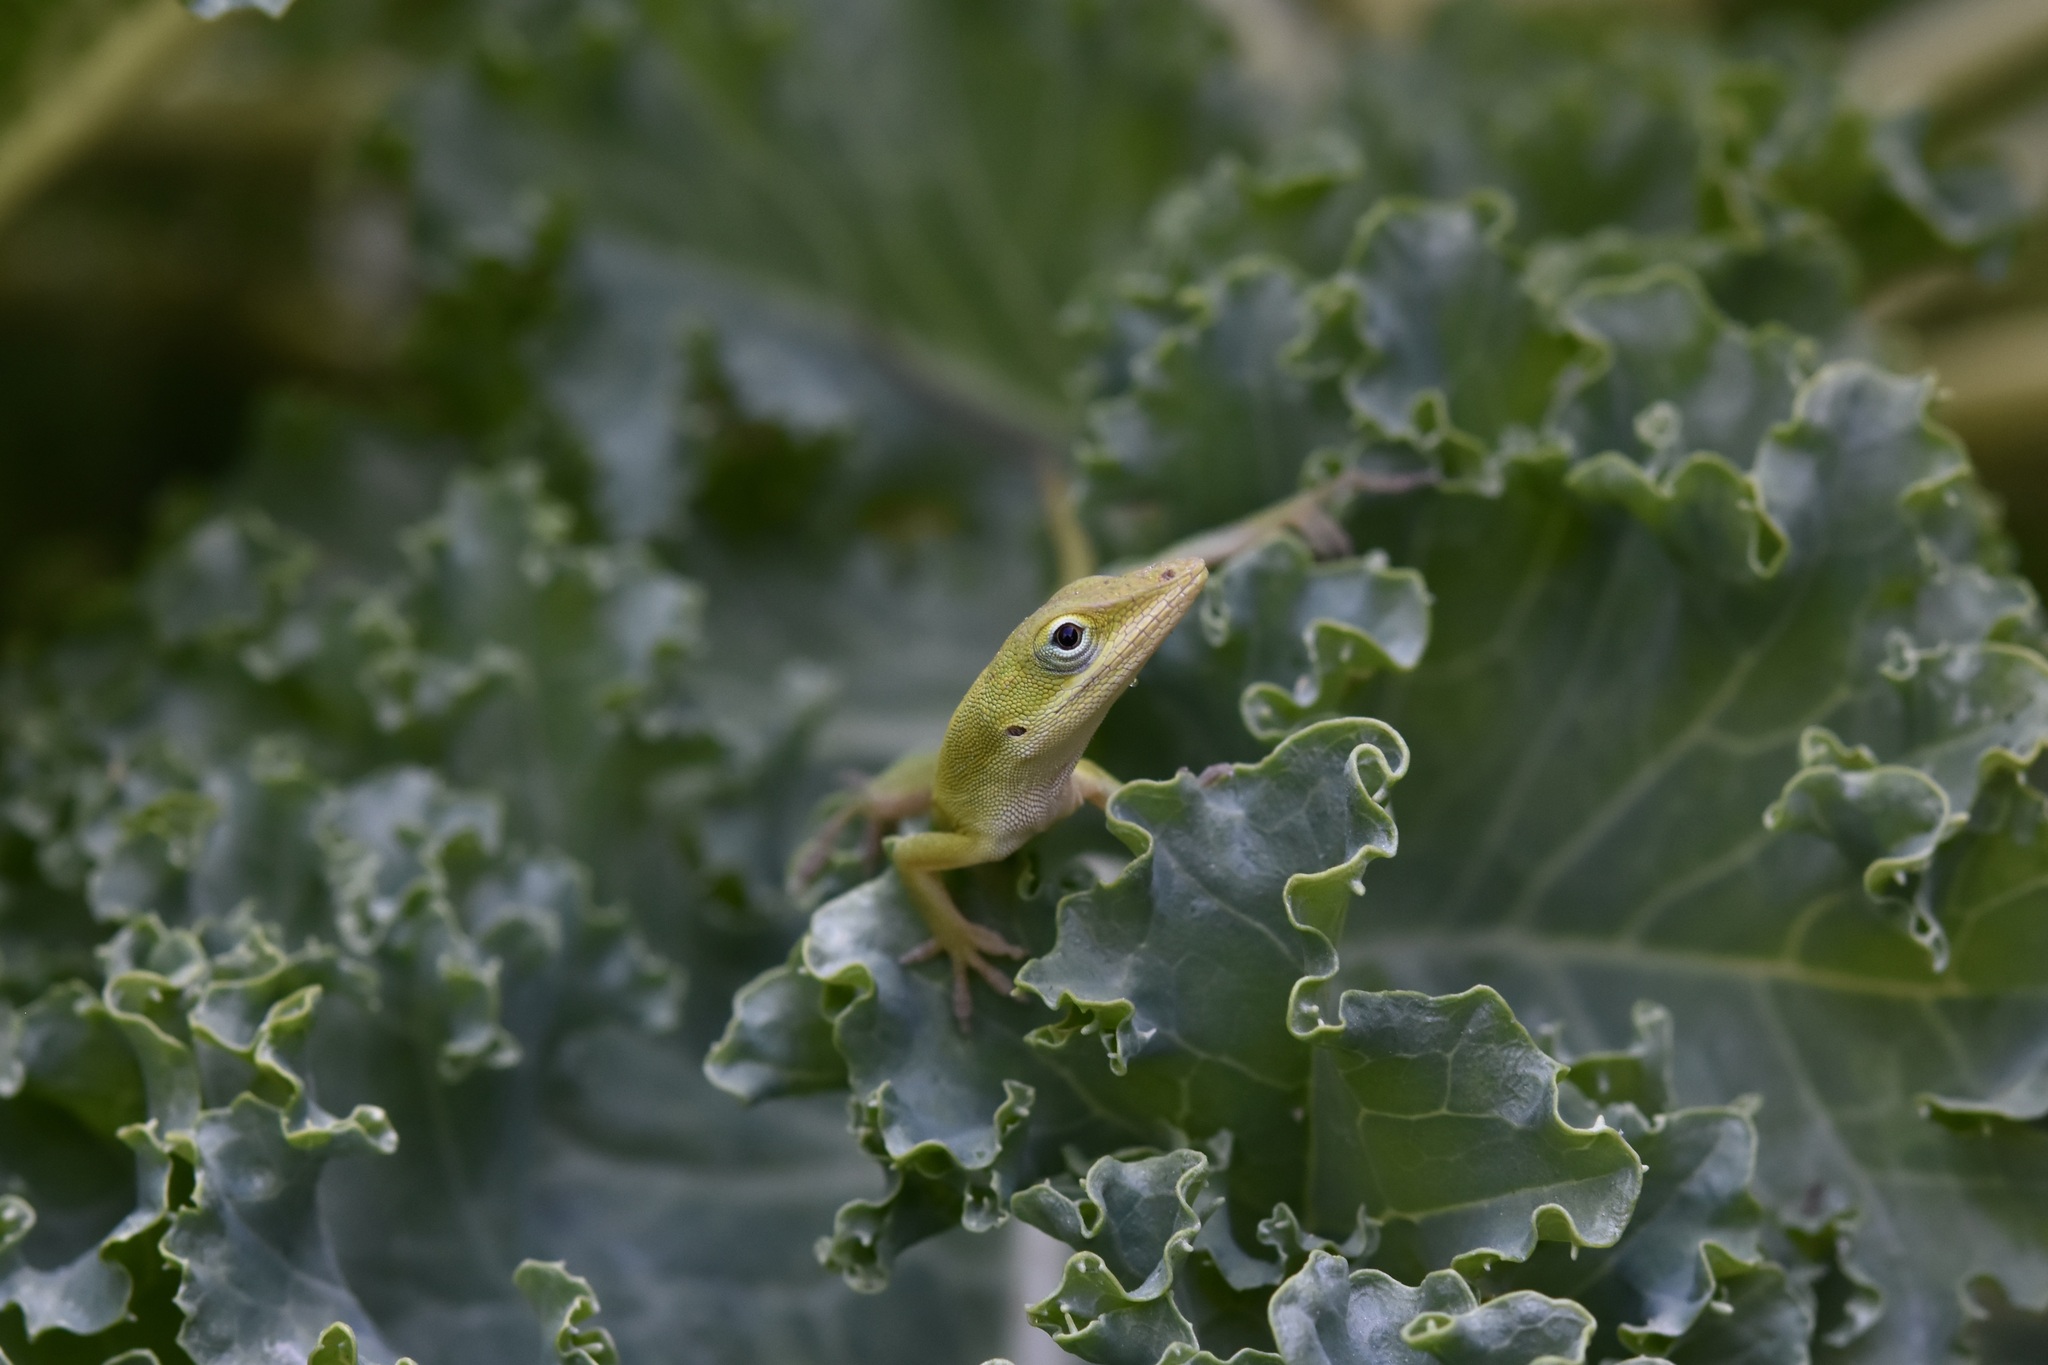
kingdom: Animalia
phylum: Chordata
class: Squamata
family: Dactyloidae
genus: Anolis
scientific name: Anolis carolinensis
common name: Green anole
